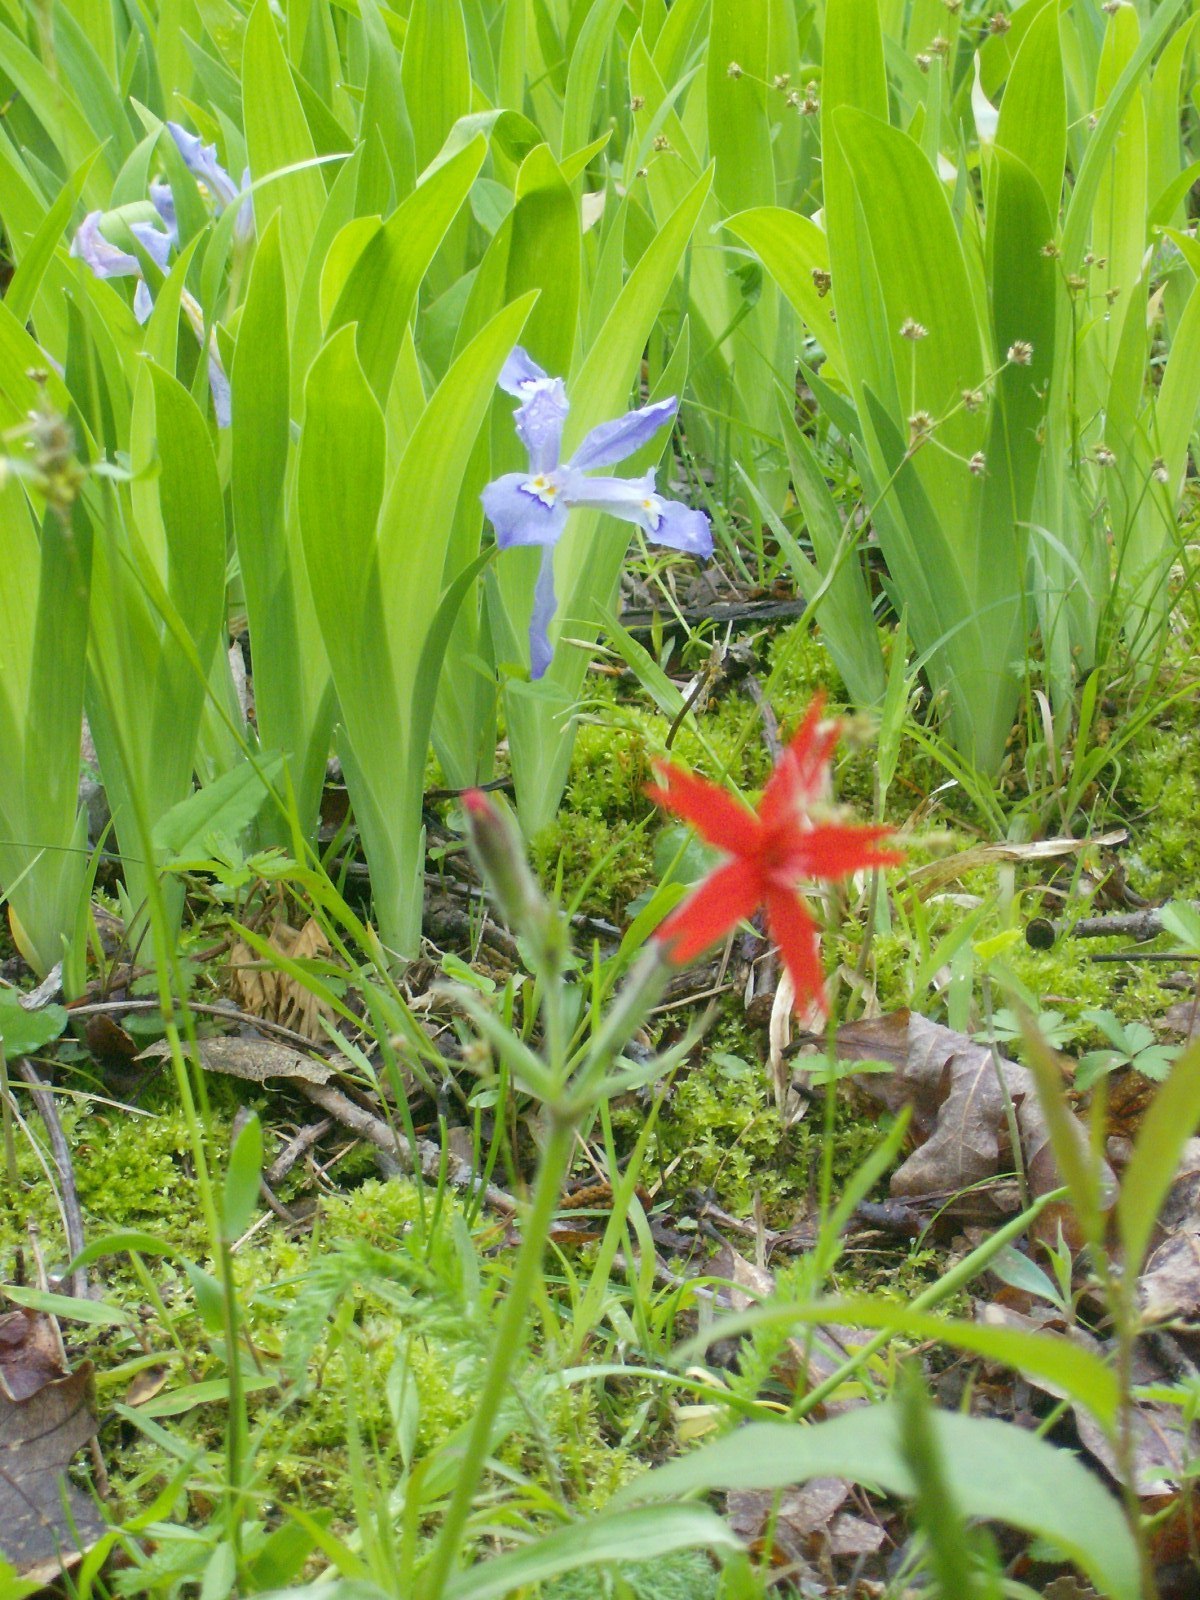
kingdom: Plantae
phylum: Tracheophyta
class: Liliopsida
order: Asparagales
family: Iridaceae
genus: Iris
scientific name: Iris cristata
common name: Crested iris
